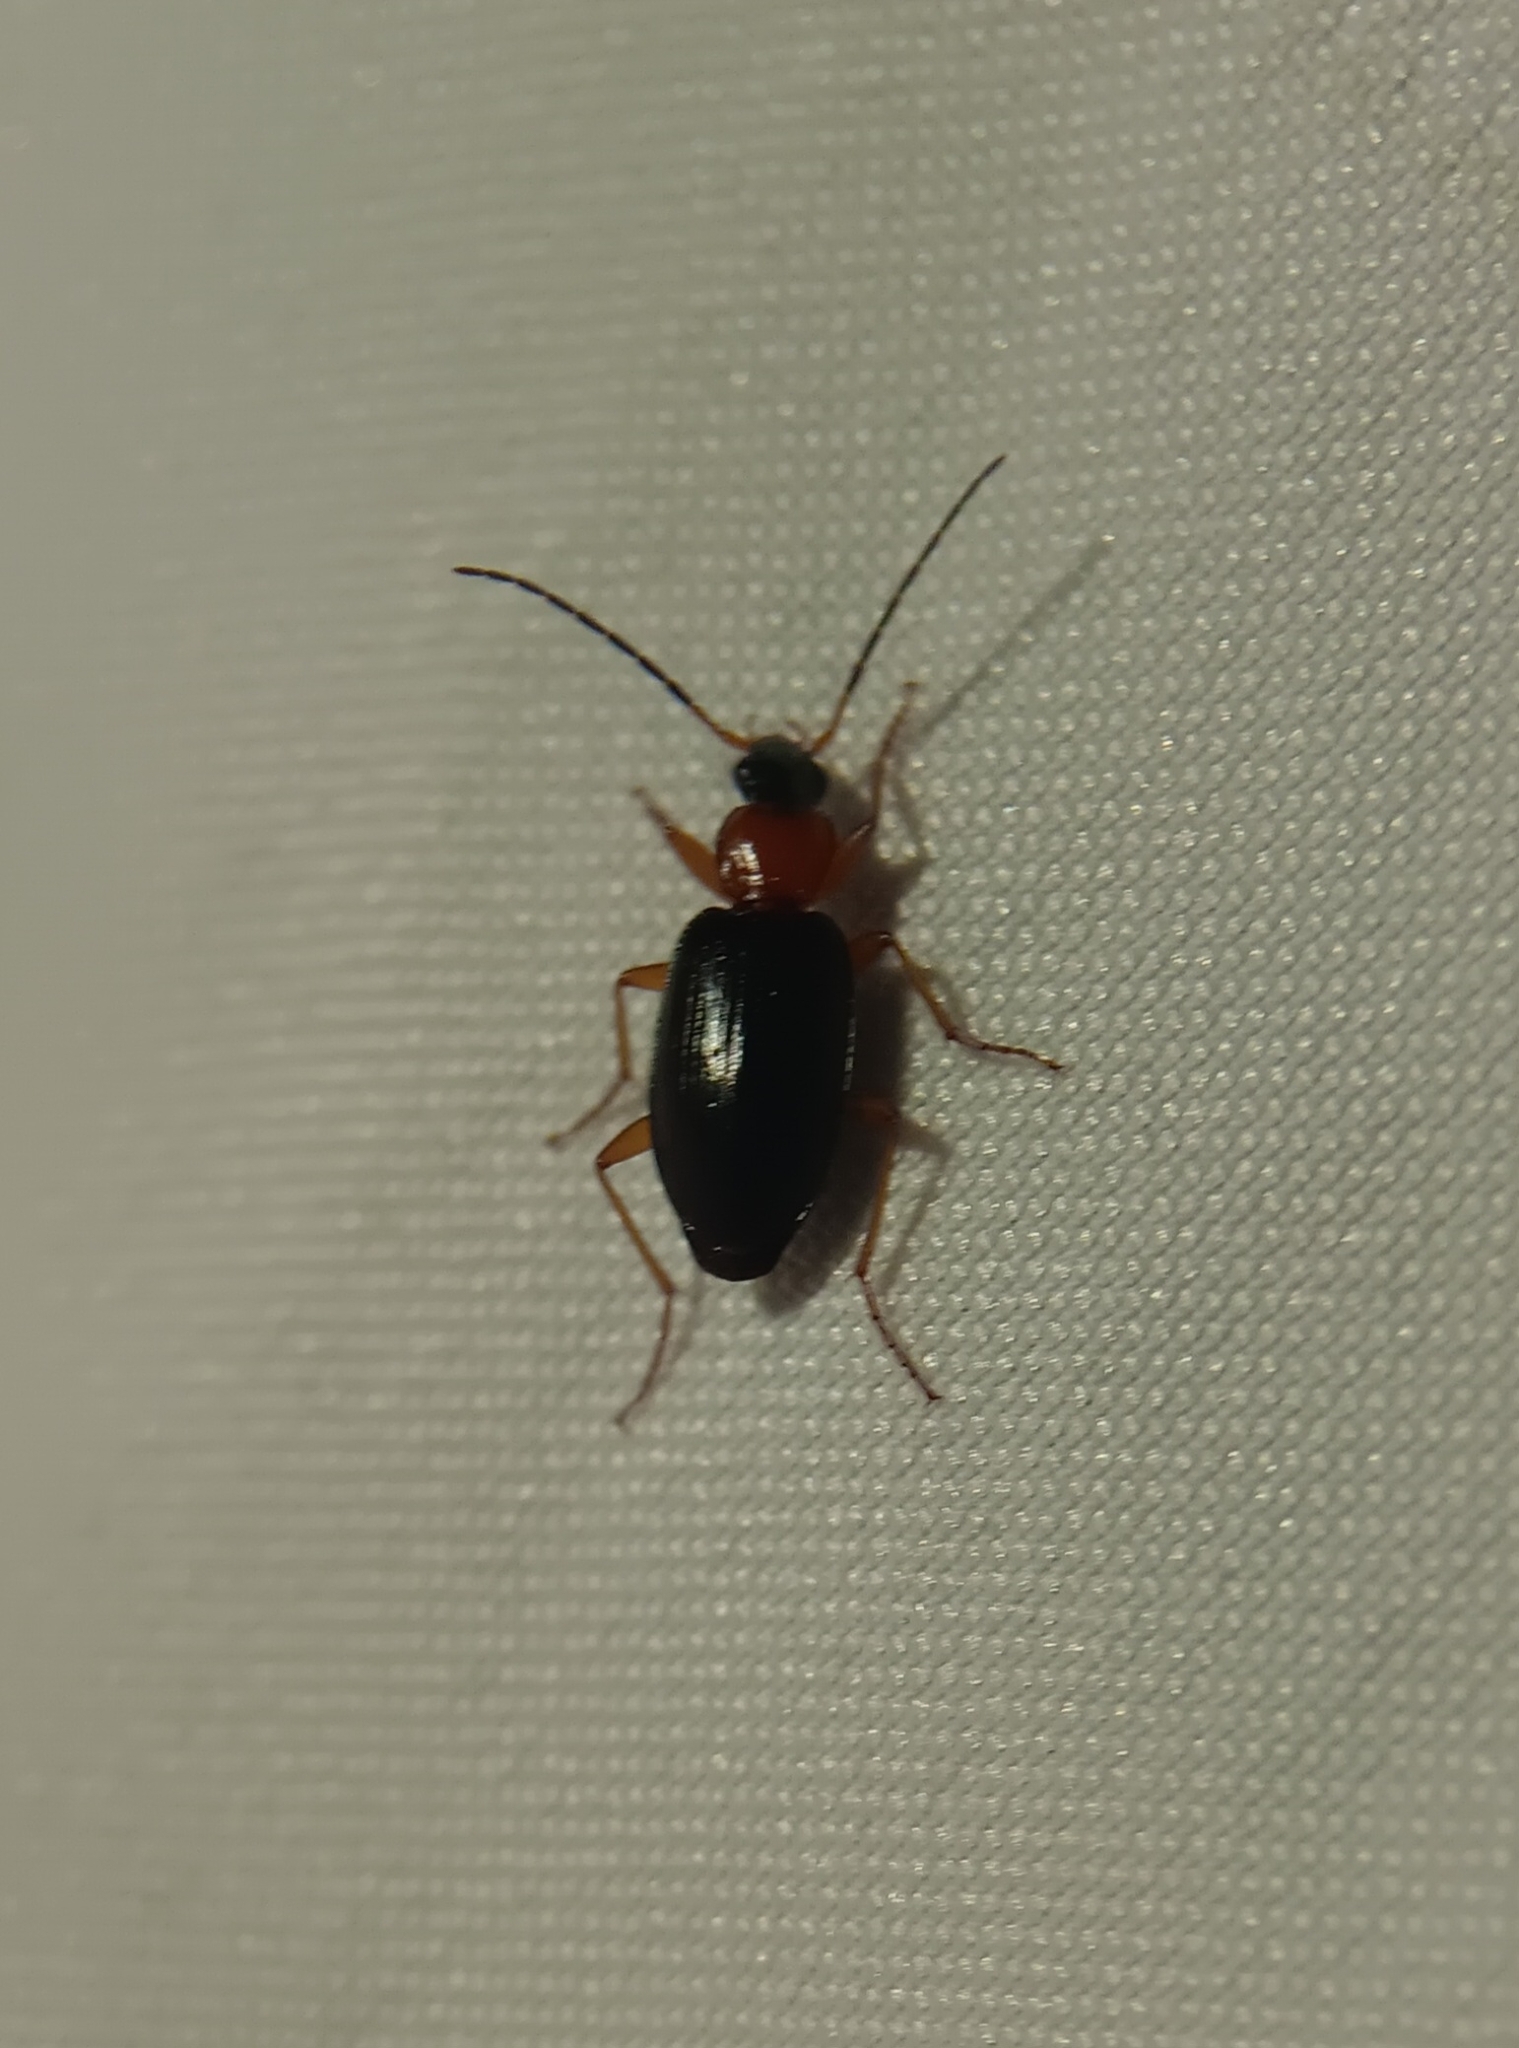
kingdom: Animalia
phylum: Arthropoda
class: Insecta
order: Coleoptera
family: Carabidae
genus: Agonum
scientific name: Agonum decorum
